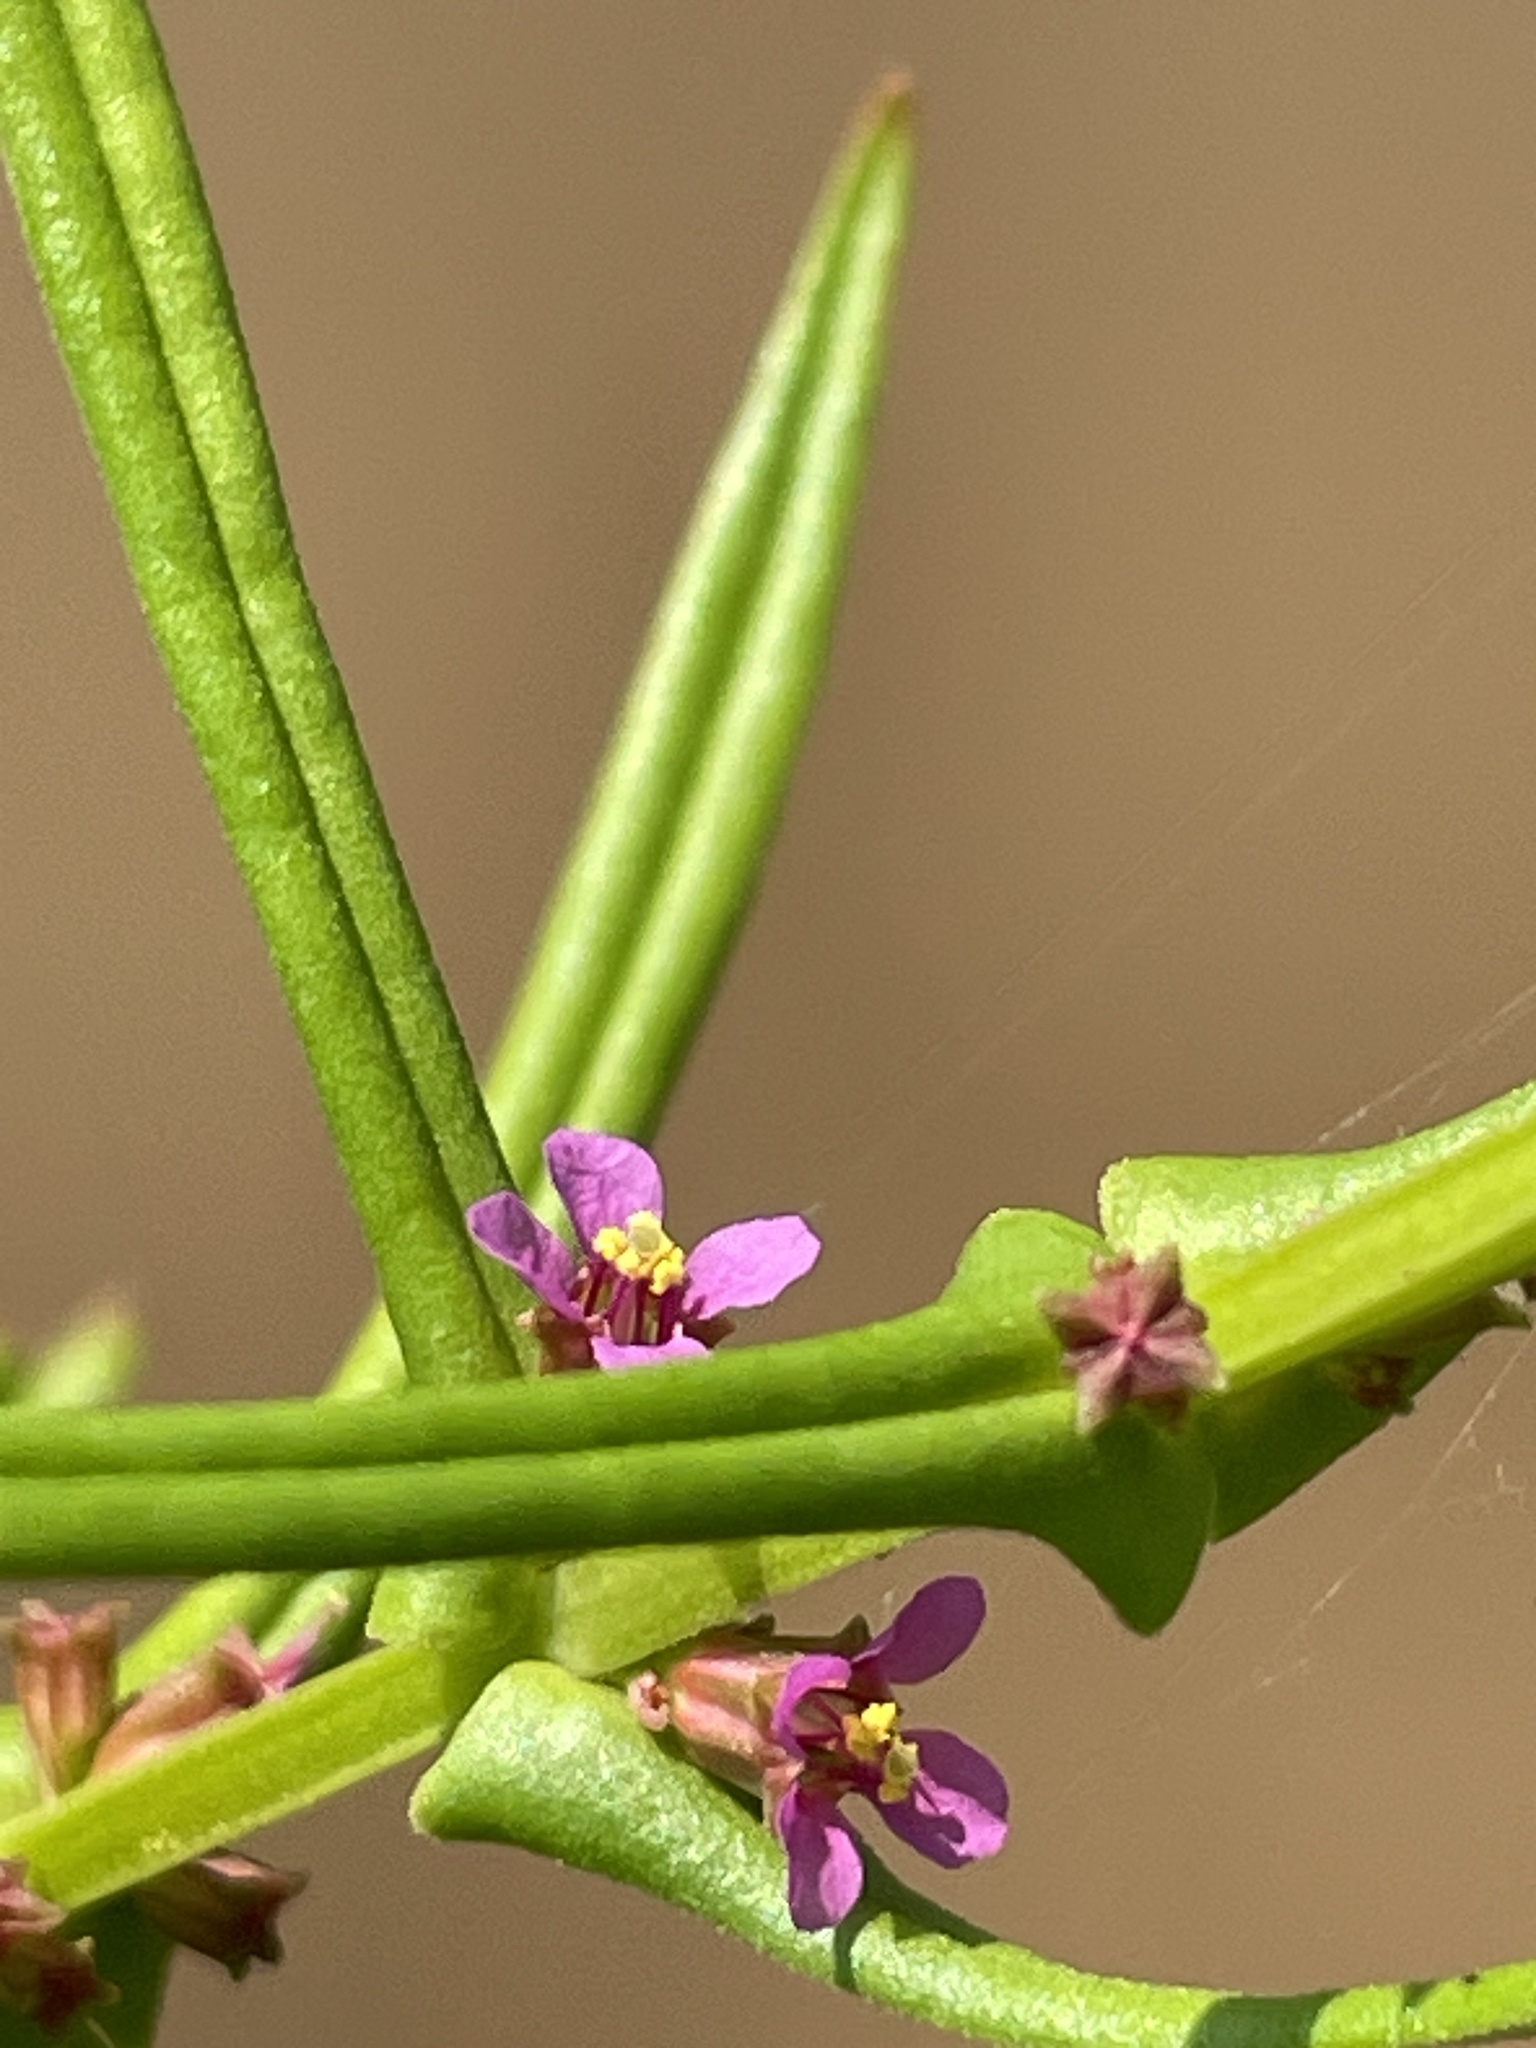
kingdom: Plantae
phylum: Tracheophyta
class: Magnoliopsida
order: Myrtales
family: Lythraceae
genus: Ammannia
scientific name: Ammannia coccinea
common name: Valley redstem
